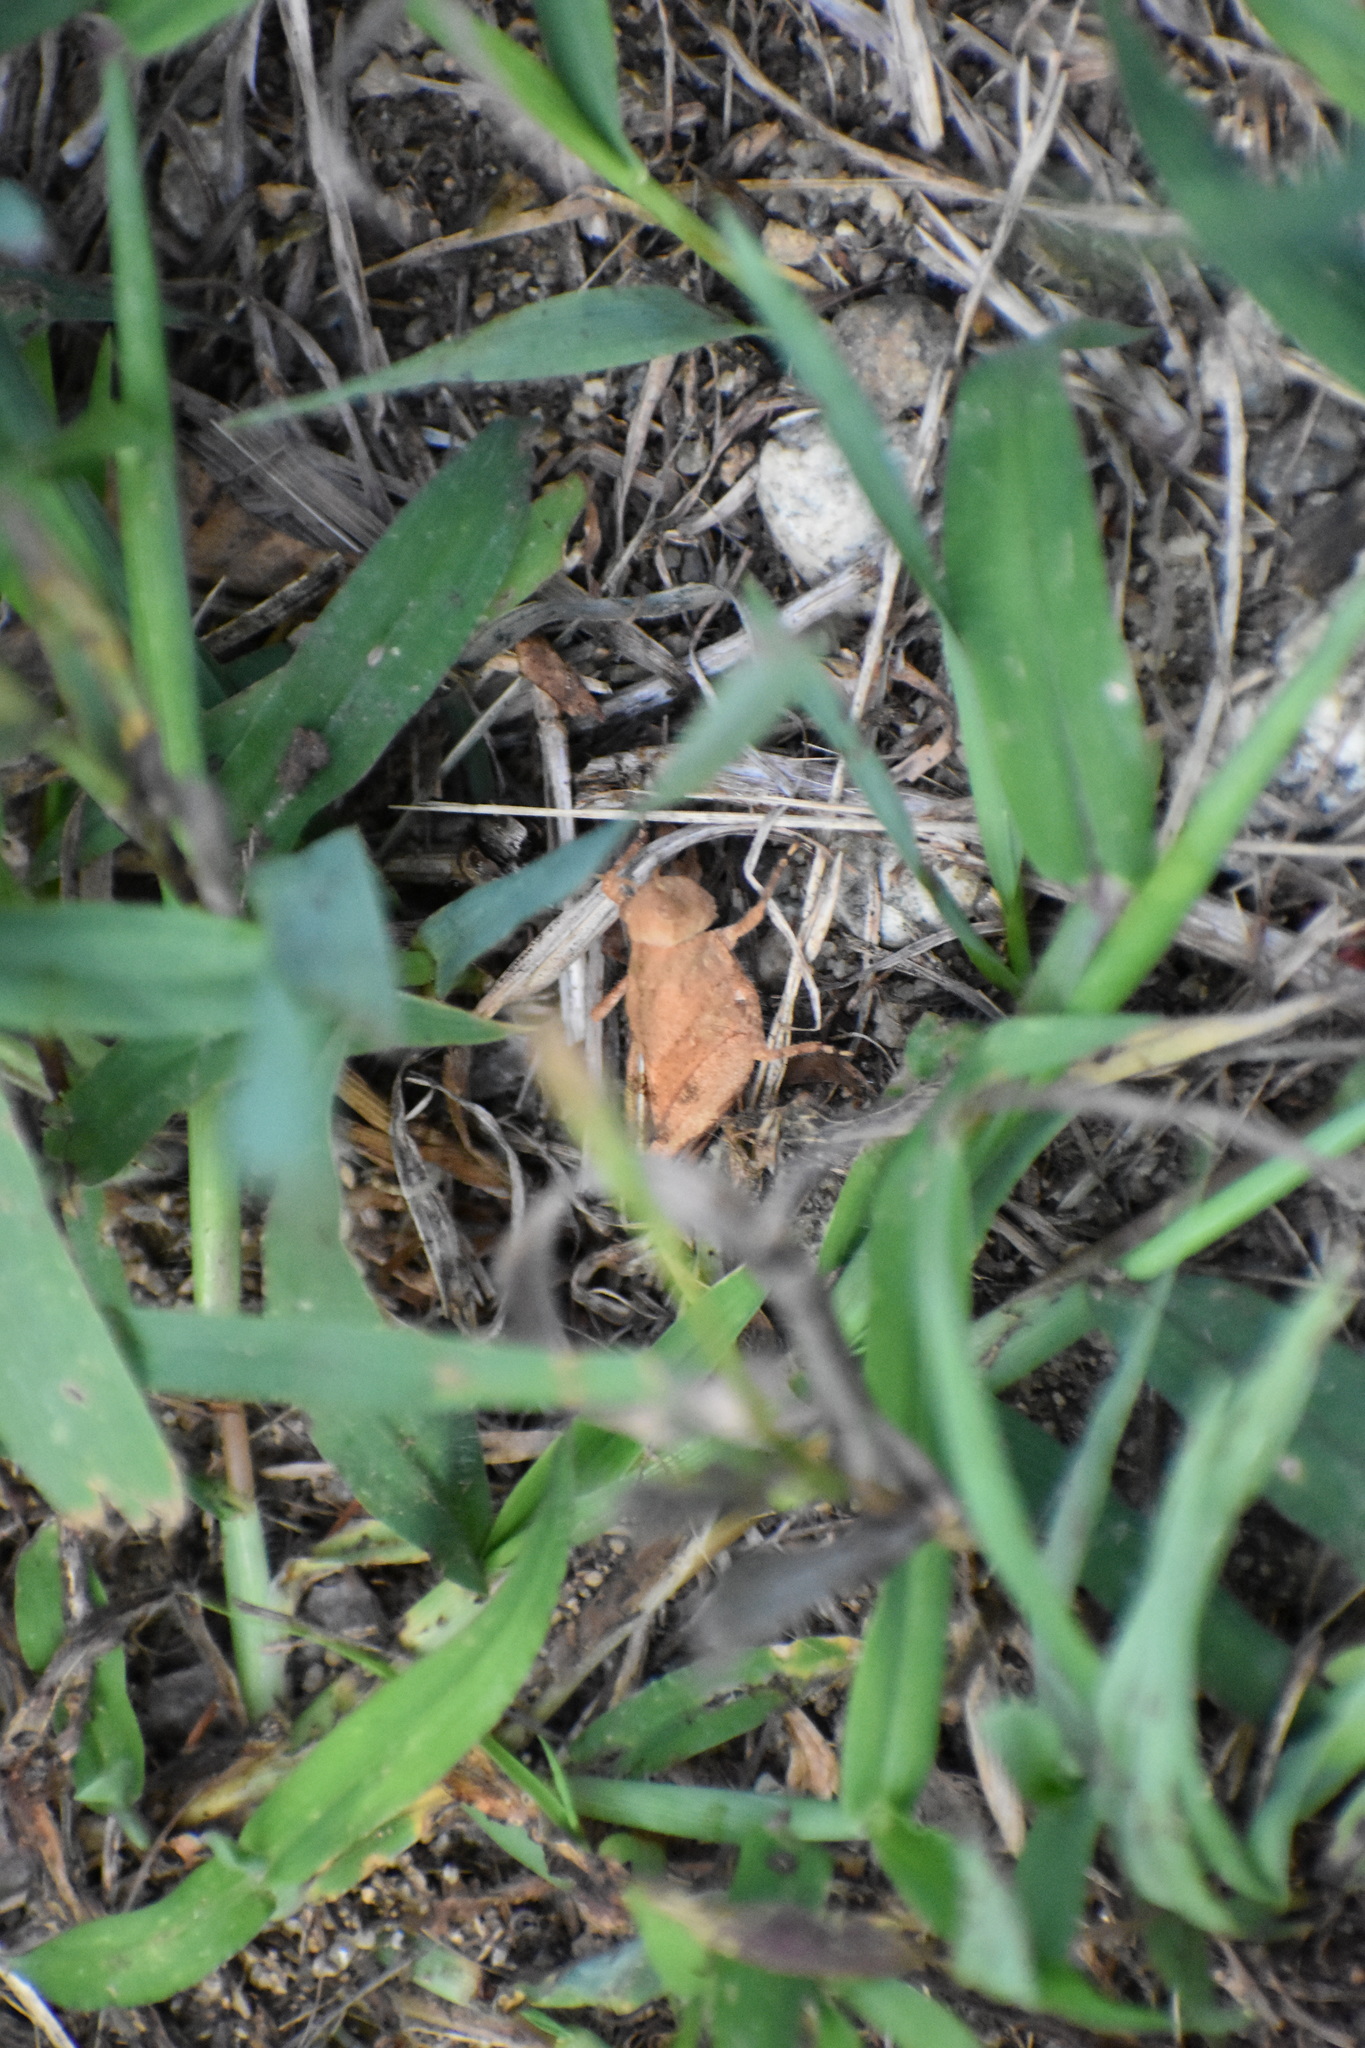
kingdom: Animalia
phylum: Arthropoda
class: Insecta
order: Orthoptera
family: Acrididae
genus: Dissosteira
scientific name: Dissosteira carolina
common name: Carolina grasshopper
